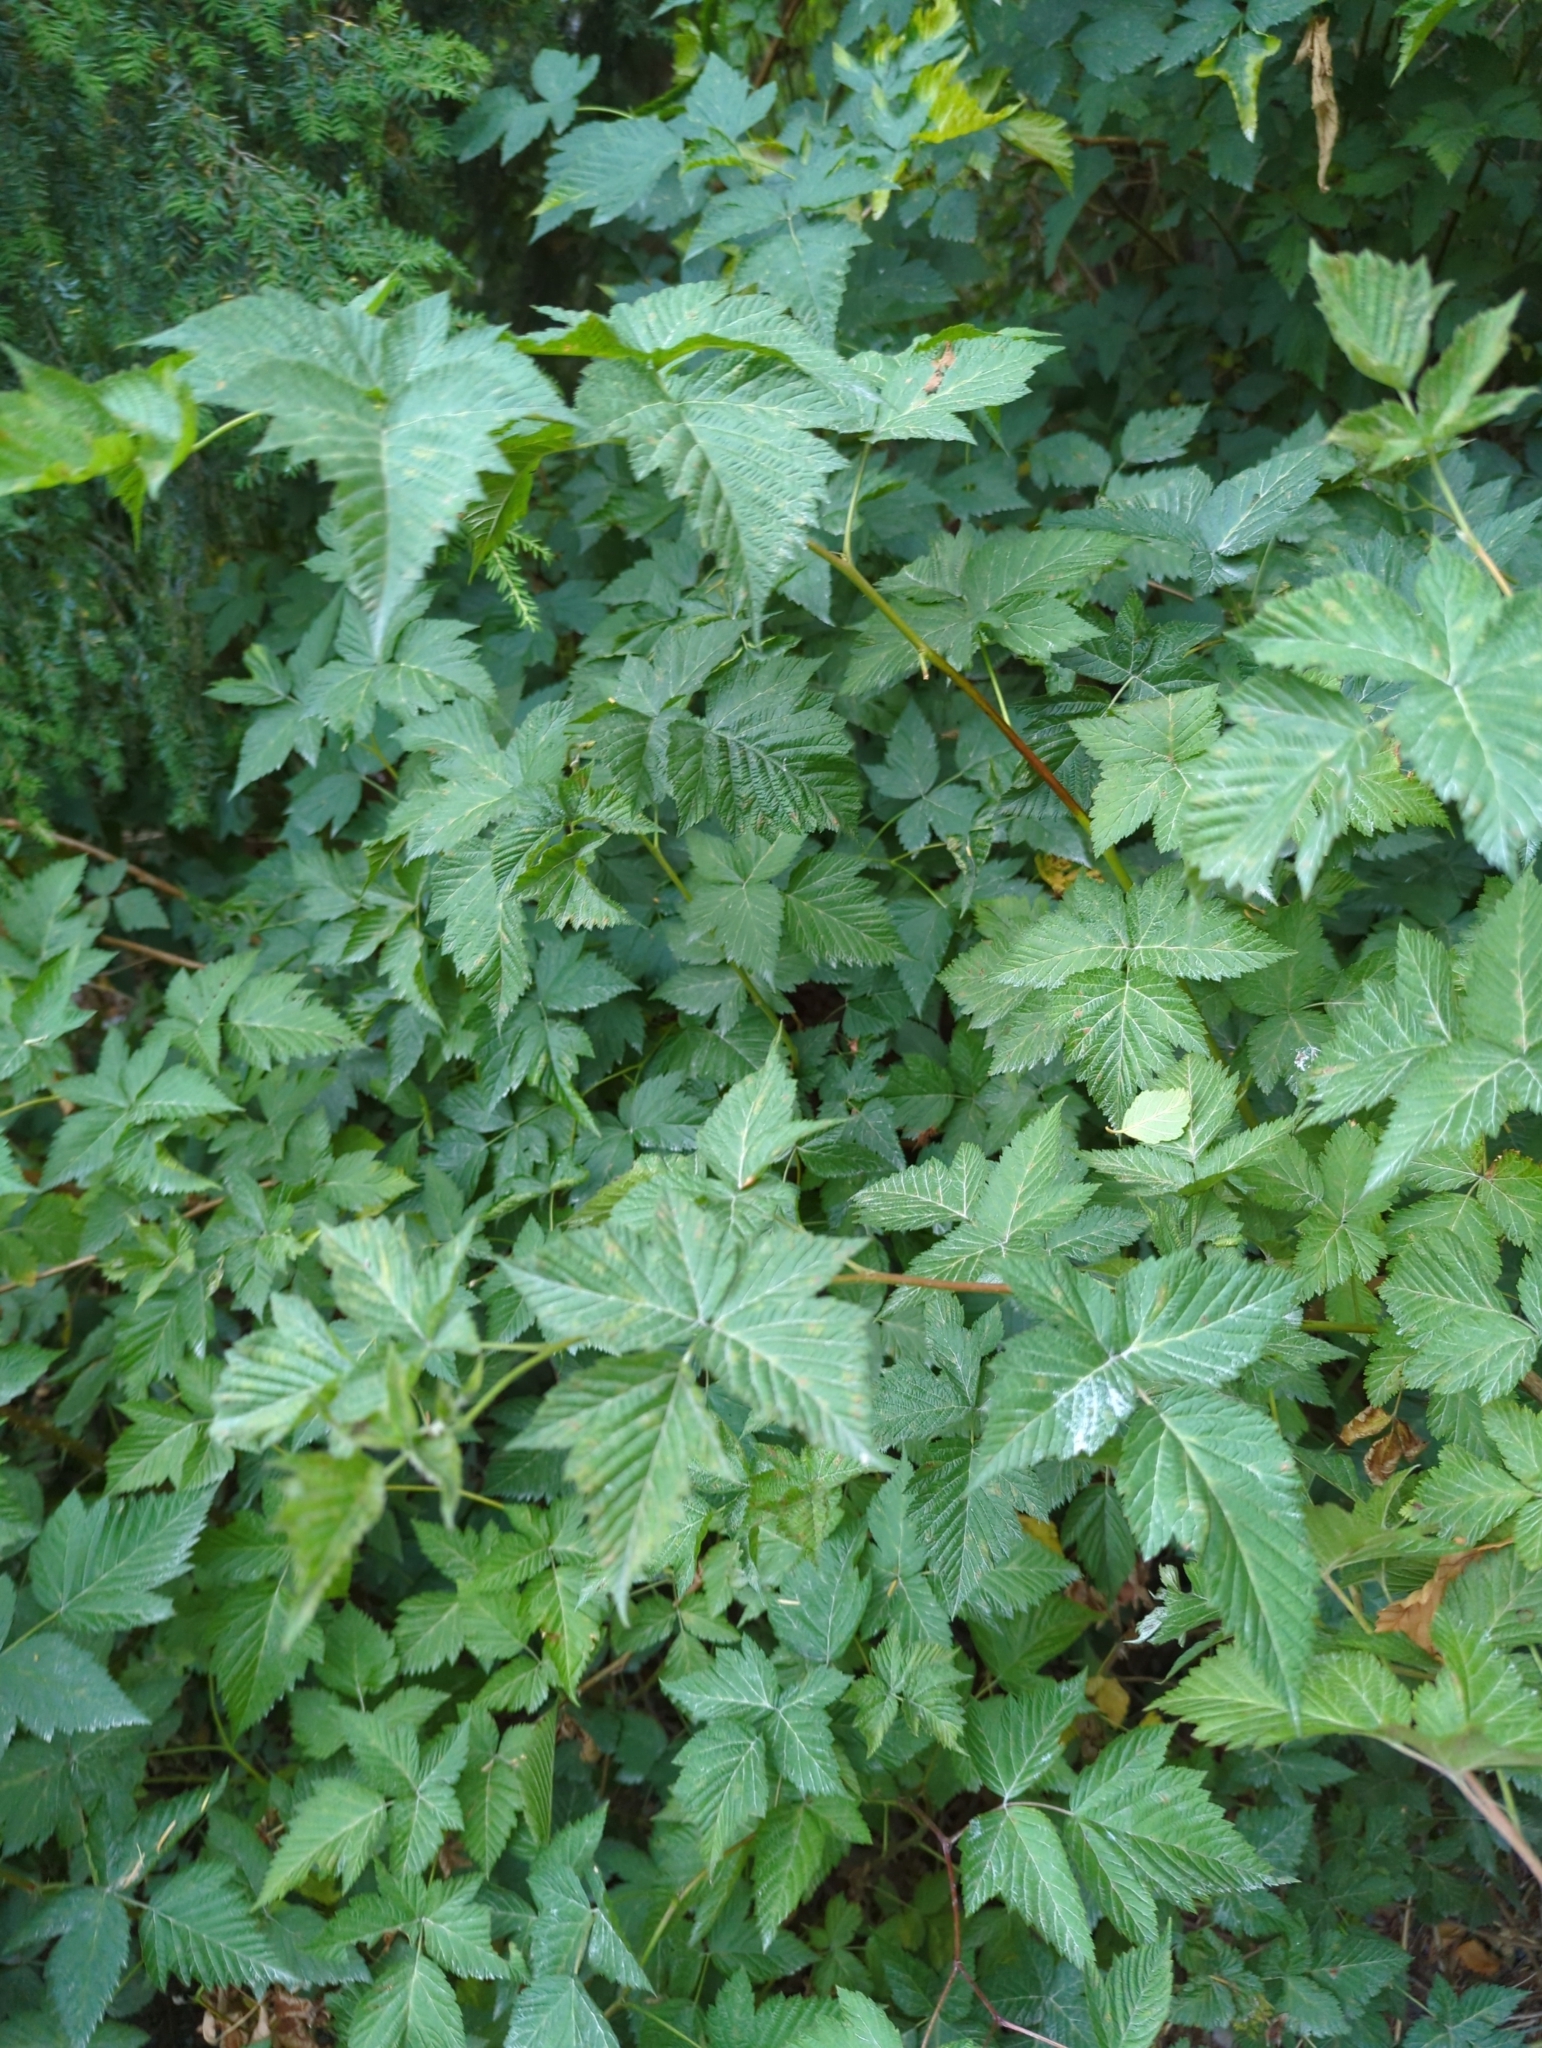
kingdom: Plantae
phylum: Tracheophyta
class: Magnoliopsida
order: Rosales
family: Rosaceae
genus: Rubus
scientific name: Rubus spectabilis
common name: Salmonberry
